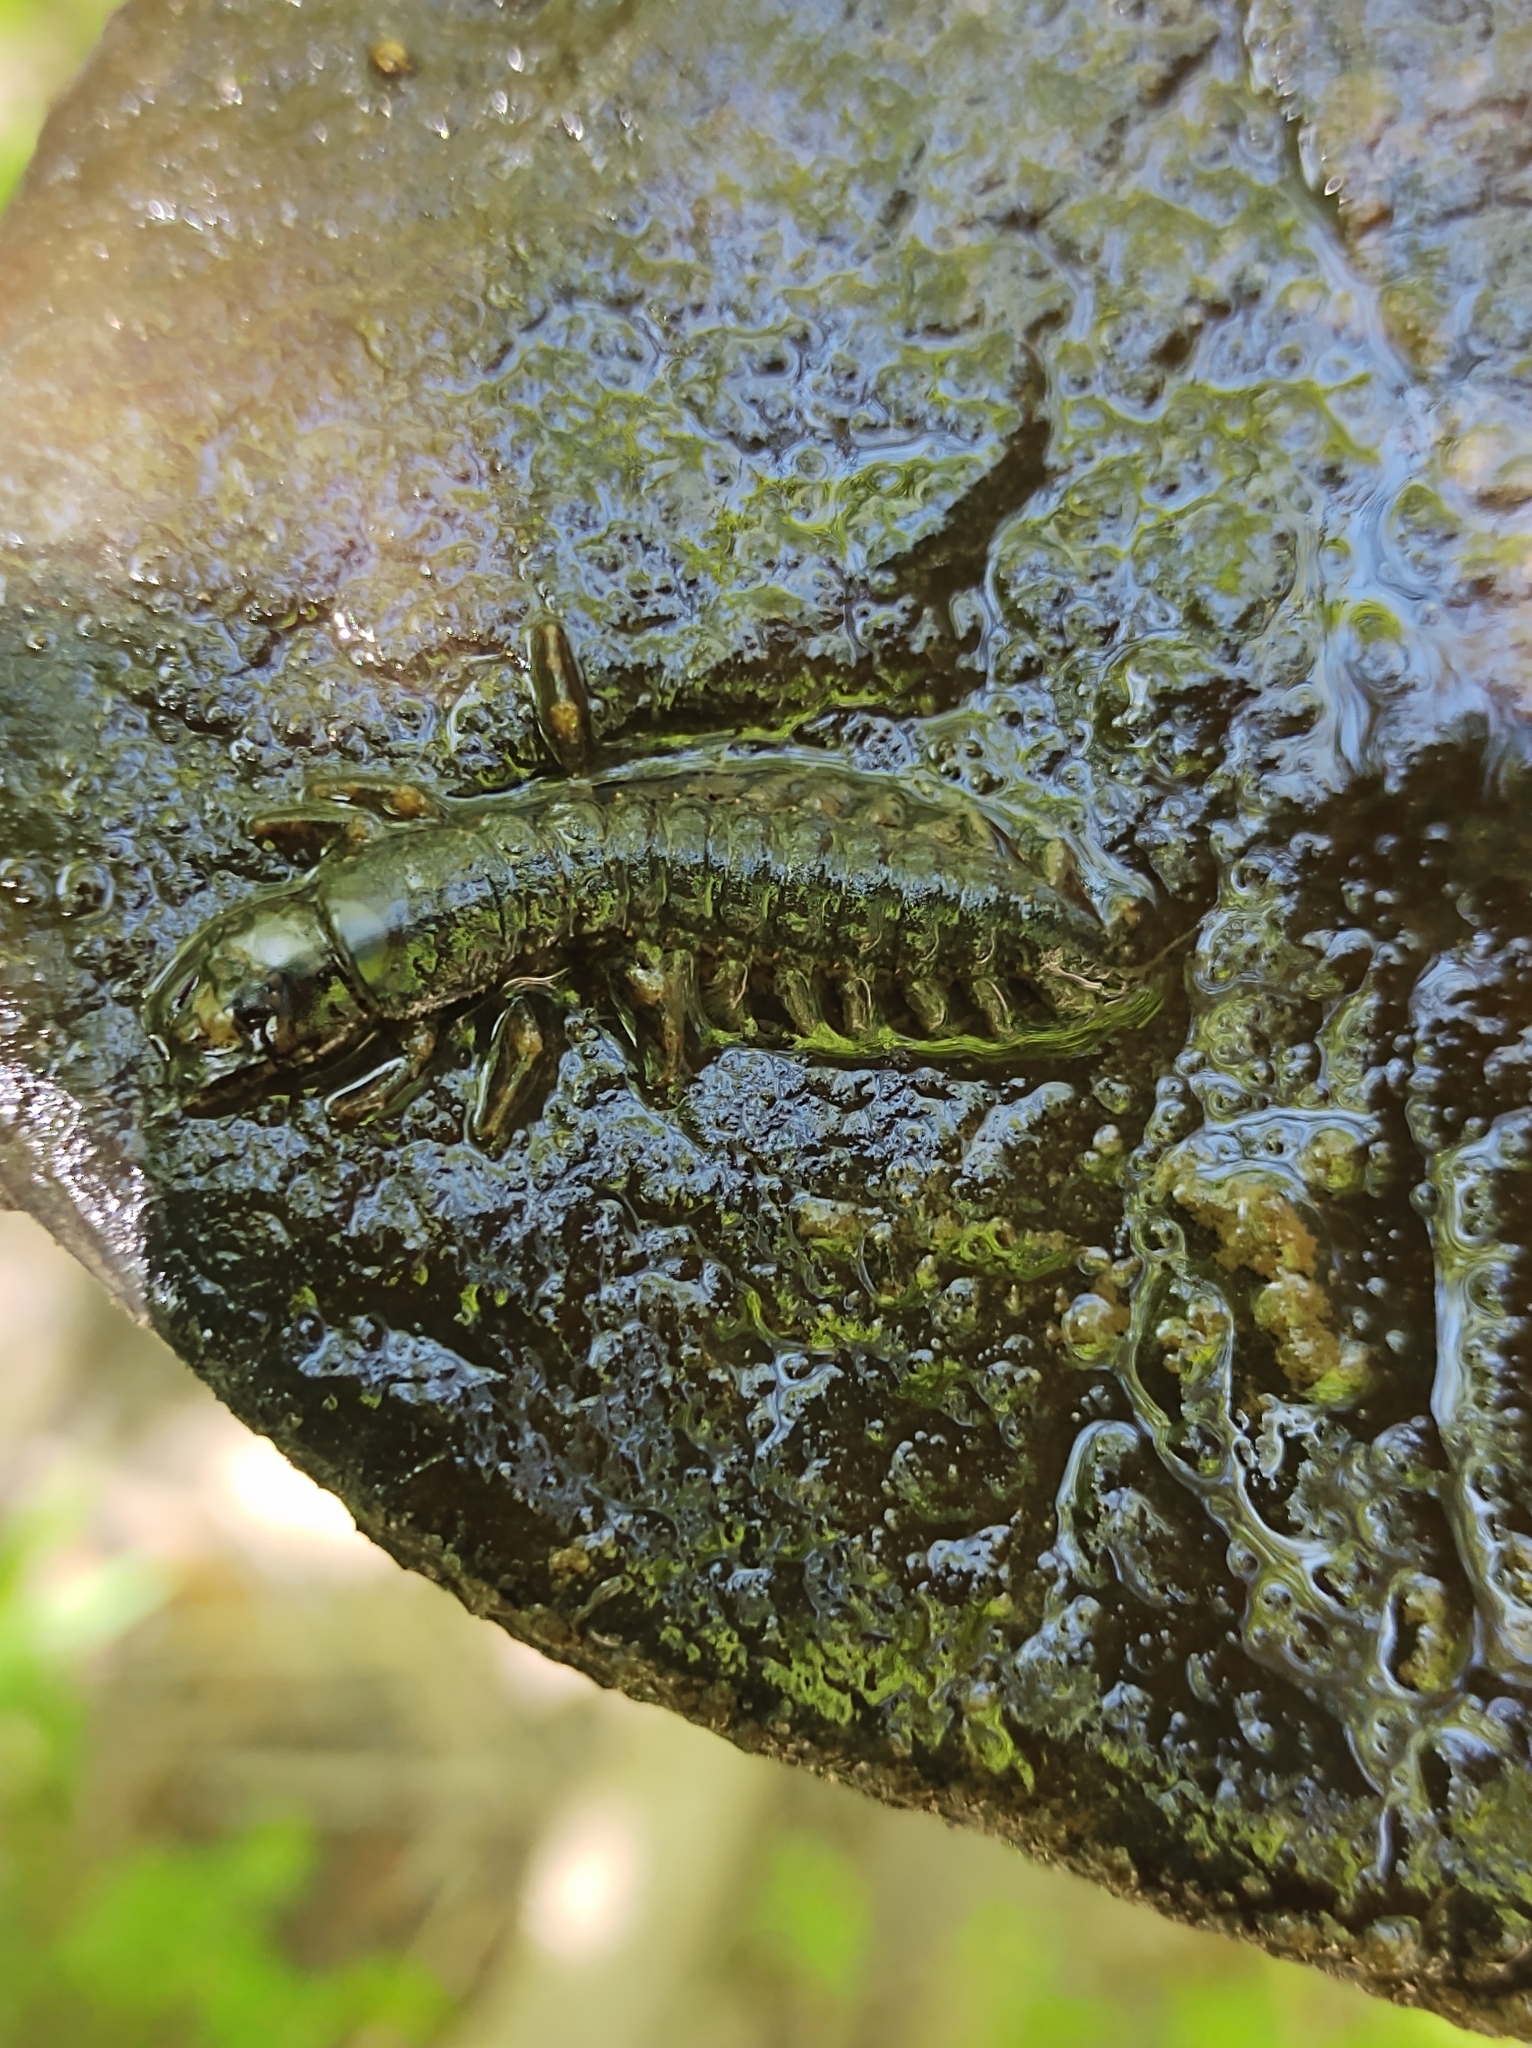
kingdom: Animalia
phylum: Arthropoda
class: Insecta
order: Megaloptera
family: Corydalidae
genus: Corydalus
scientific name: Corydalus cornutus
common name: Dobsonfly
